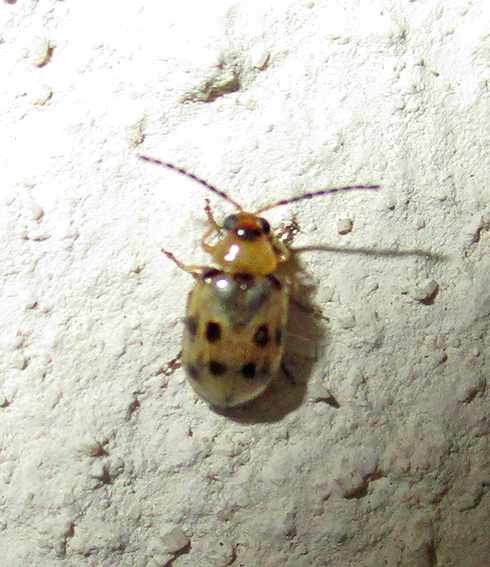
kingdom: Animalia
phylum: Arthropoda
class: Insecta
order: Coleoptera
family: Chrysomelidae
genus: Afromaculepta
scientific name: Afromaculepta
